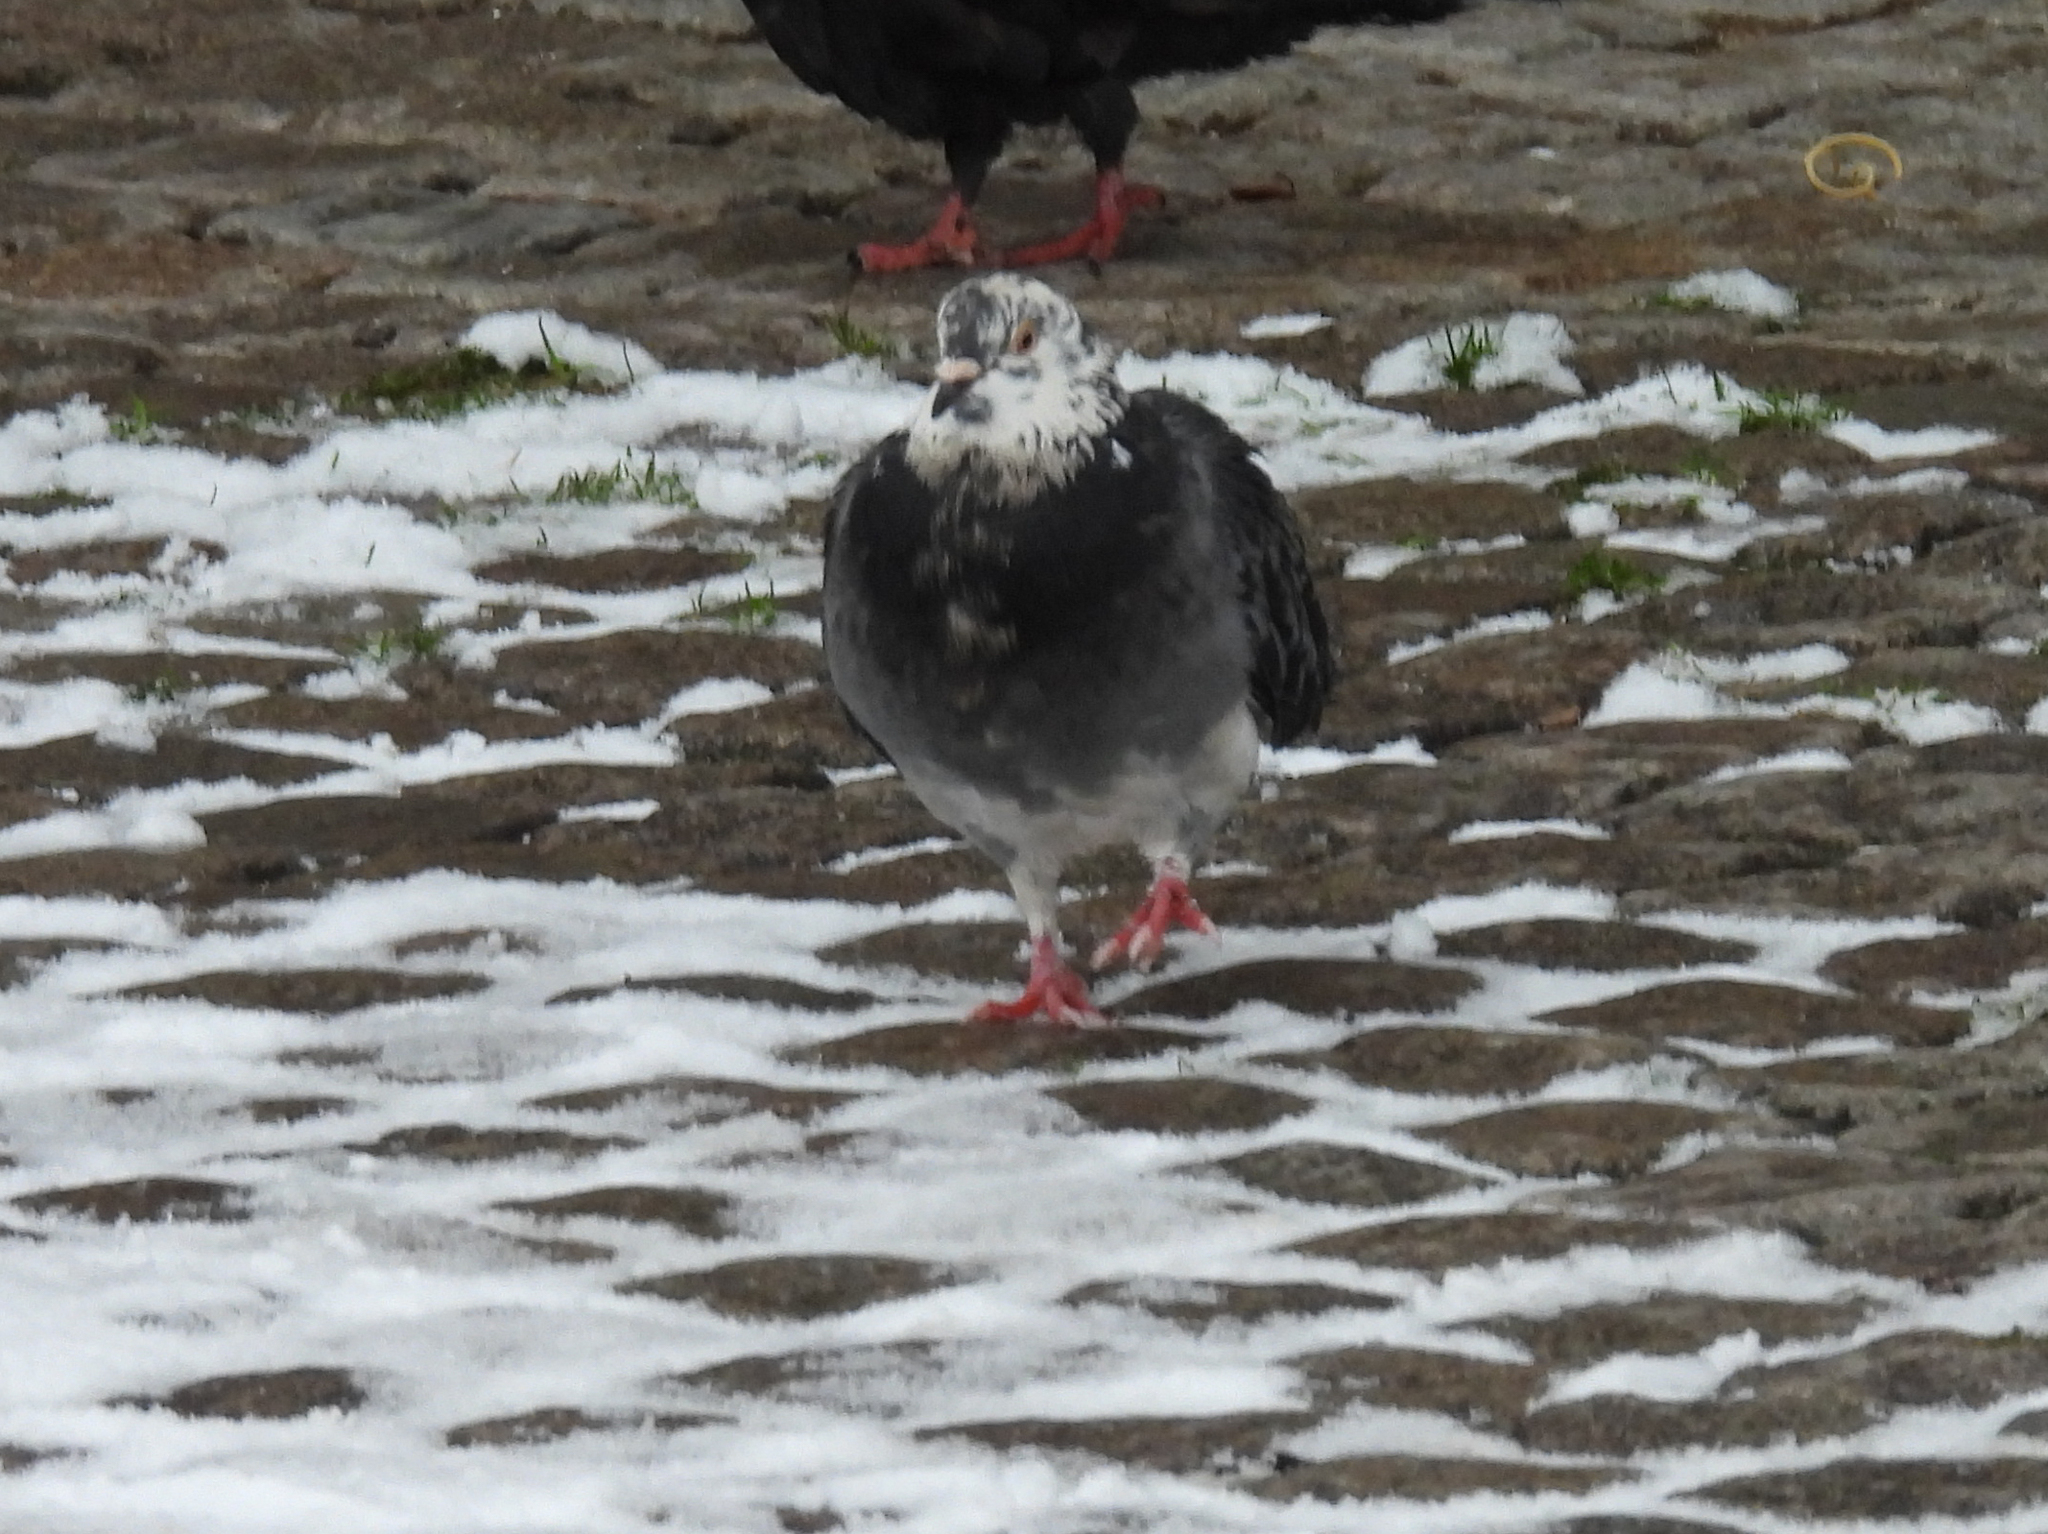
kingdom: Animalia
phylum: Chordata
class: Aves
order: Columbiformes
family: Columbidae
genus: Columba
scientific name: Columba livia
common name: Rock pigeon
